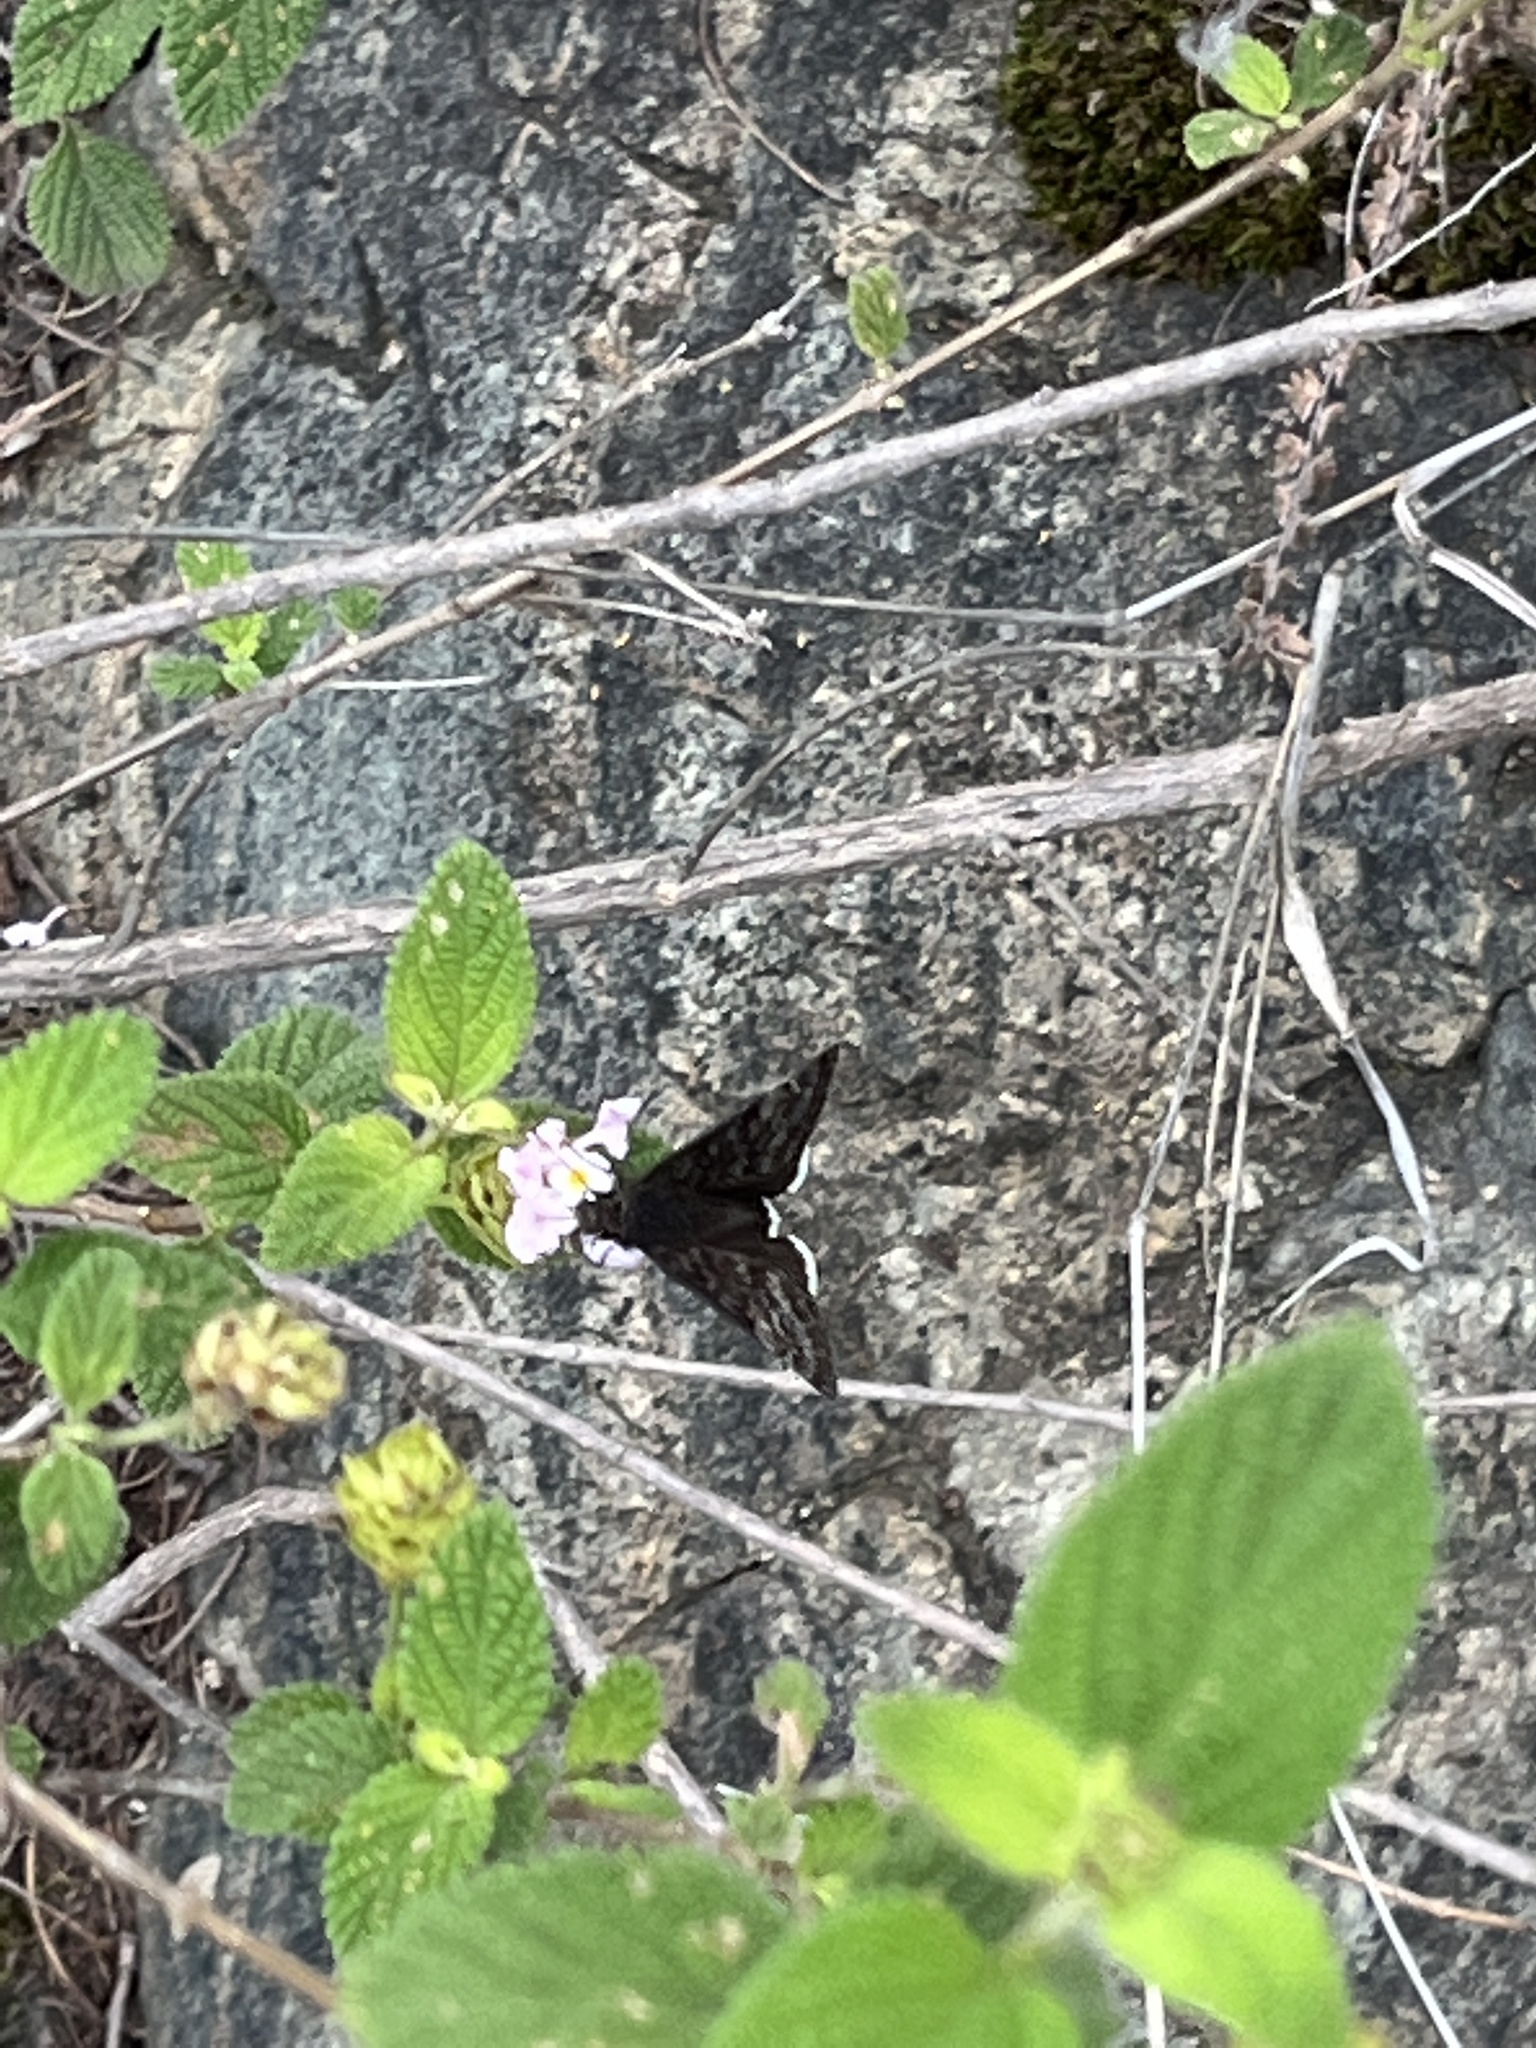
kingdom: Animalia
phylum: Arthropoda
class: Insecta
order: Lepidoptera
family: Hesperiidae
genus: Erynnis
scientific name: Erynnis funeralis
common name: Funereal duskywing
